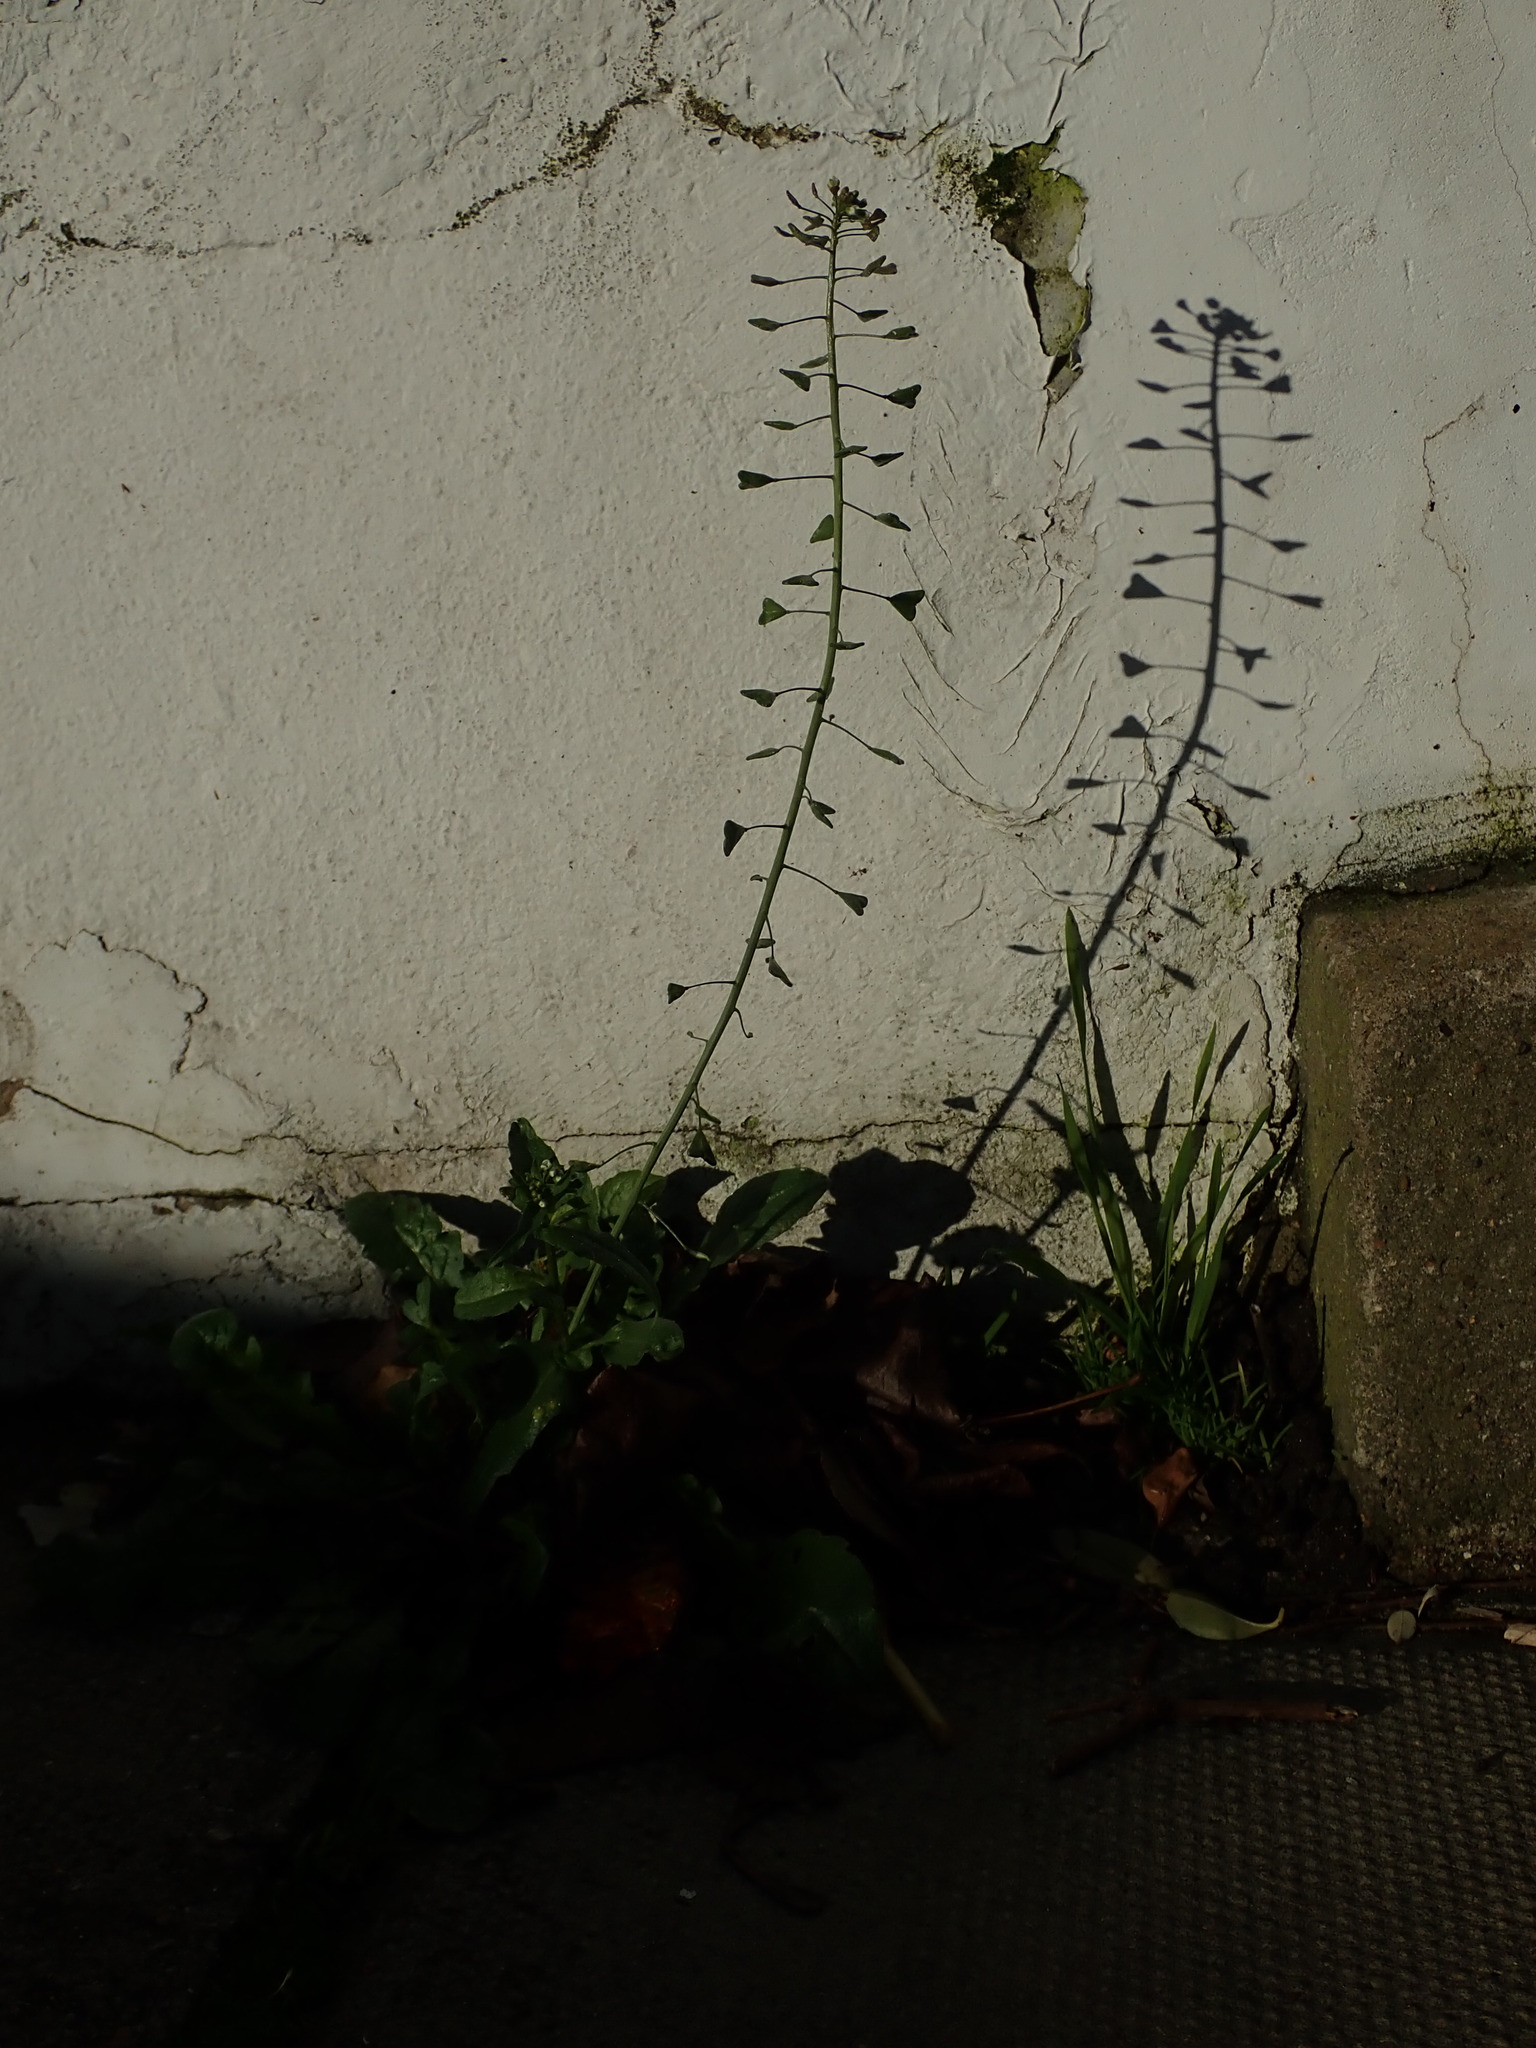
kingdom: Plantae
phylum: Tracheophyta
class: Magnoliopsida
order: Brassicales
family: Brassicaceae
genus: Capsella
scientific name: Capsella bursa-pastoris
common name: Shepherd's purse
